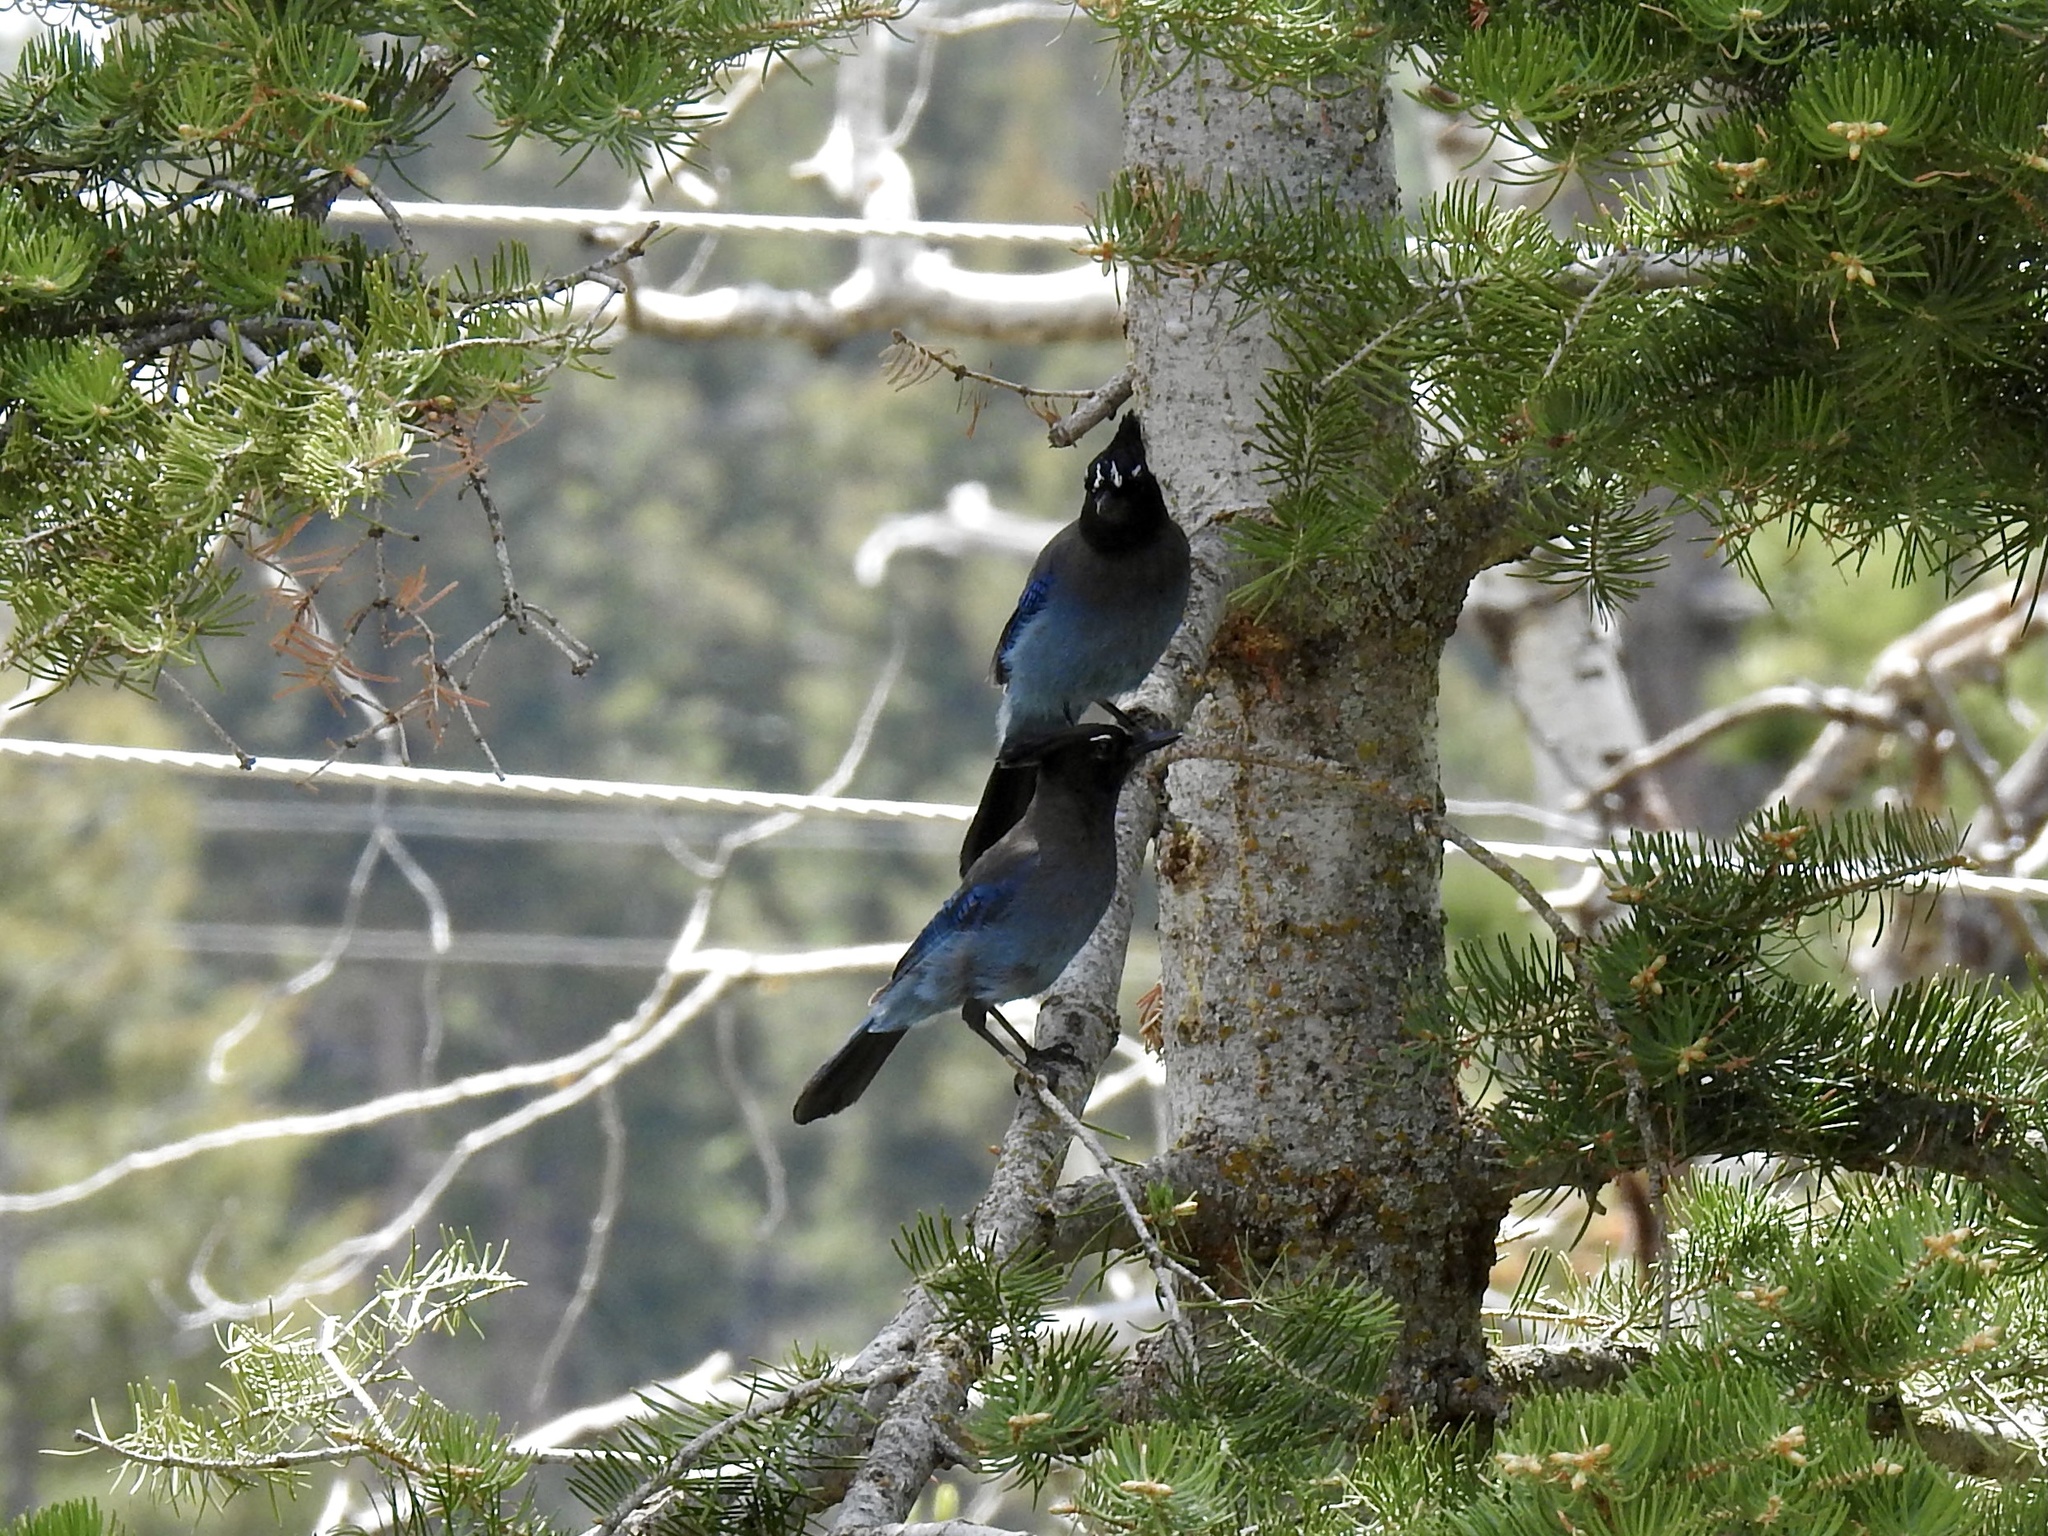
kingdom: Animalia
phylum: Chordata
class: Aves
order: Passeriformes
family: Corvidae
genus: Cyanocitta
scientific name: Cyanocitta stelleri
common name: Steller's jay
